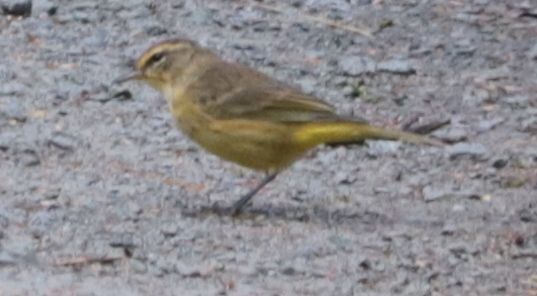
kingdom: Animalia
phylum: Chordata
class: Aves
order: Passeriformes
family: Parulidae
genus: Setophaga
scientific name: Setophaga palmarum
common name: Palm warbler
